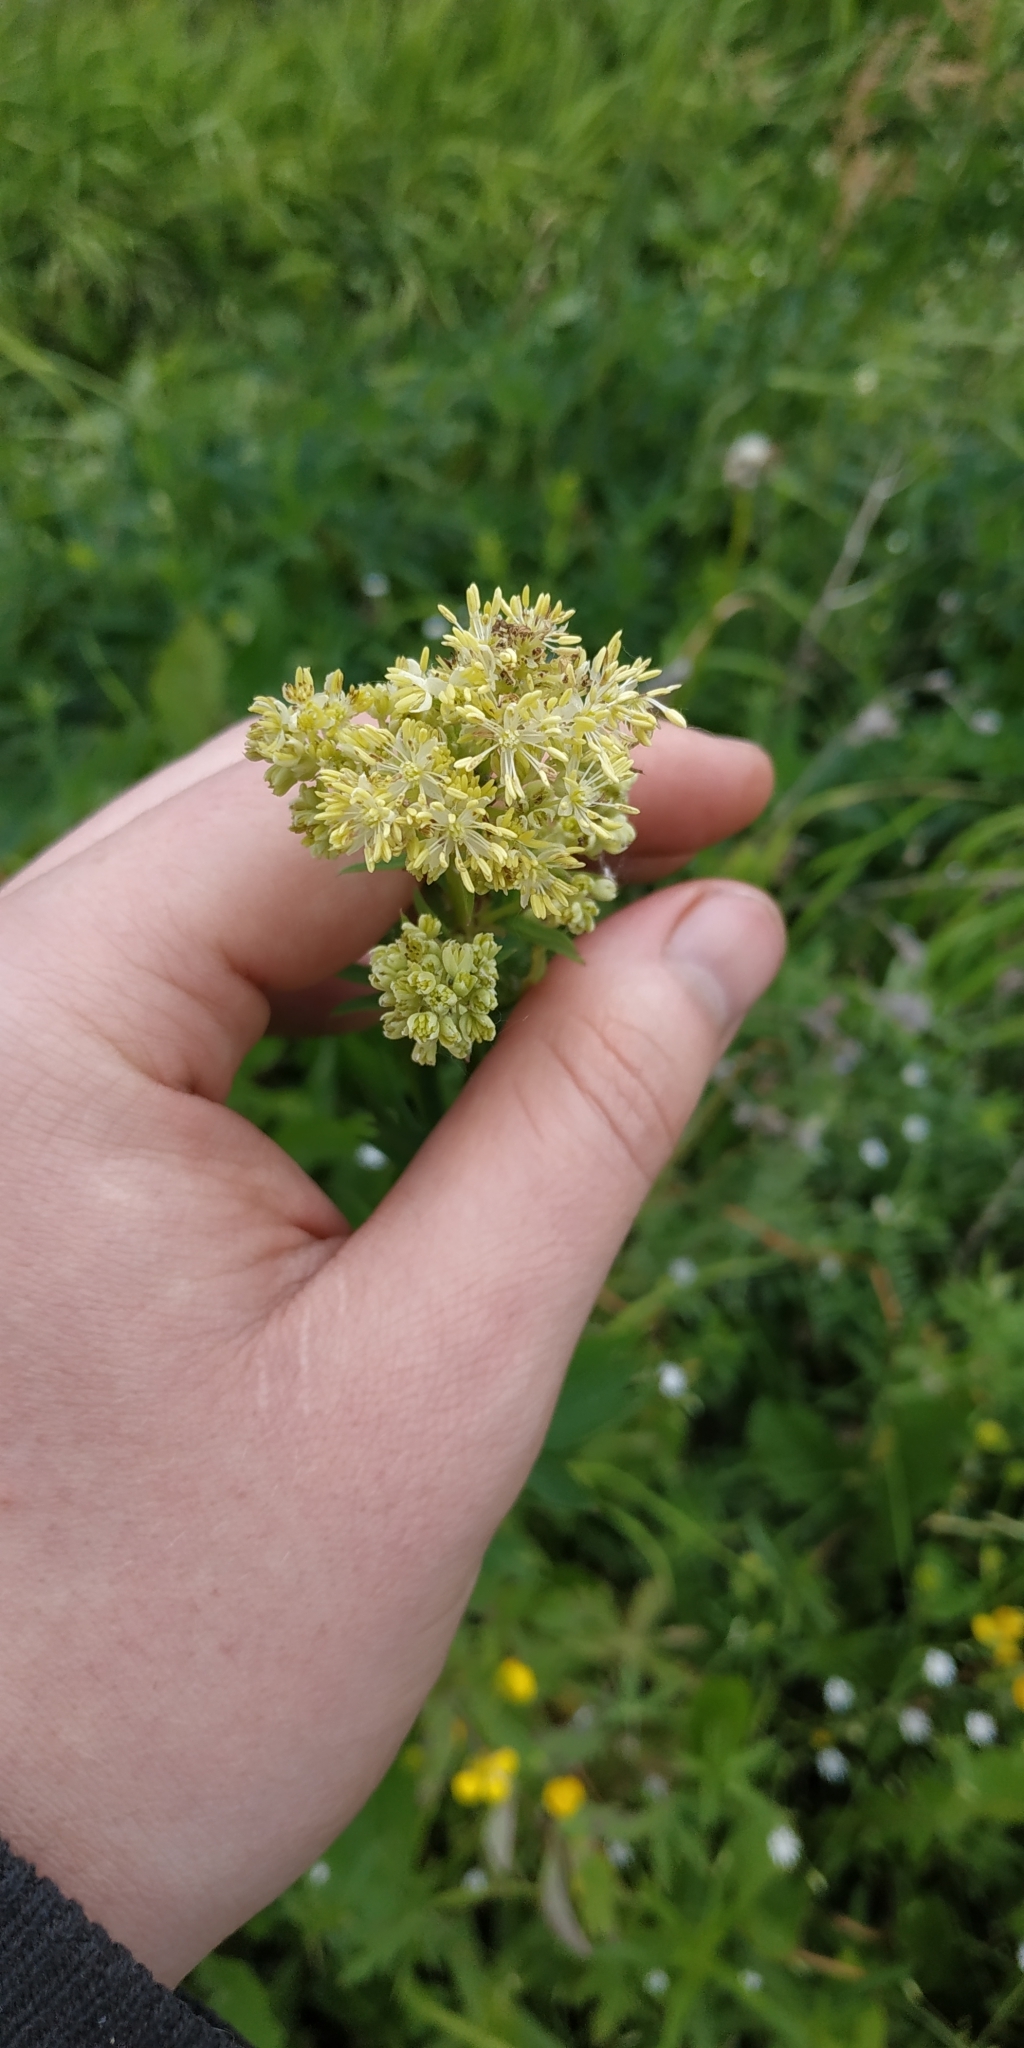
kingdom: Plantae
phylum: Tracheophyta
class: Magnoliopsida
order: Ranunculales
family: Ranunculaceae
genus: Thalictrum
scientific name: Thalictrum flavum
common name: Common meadow-rue
